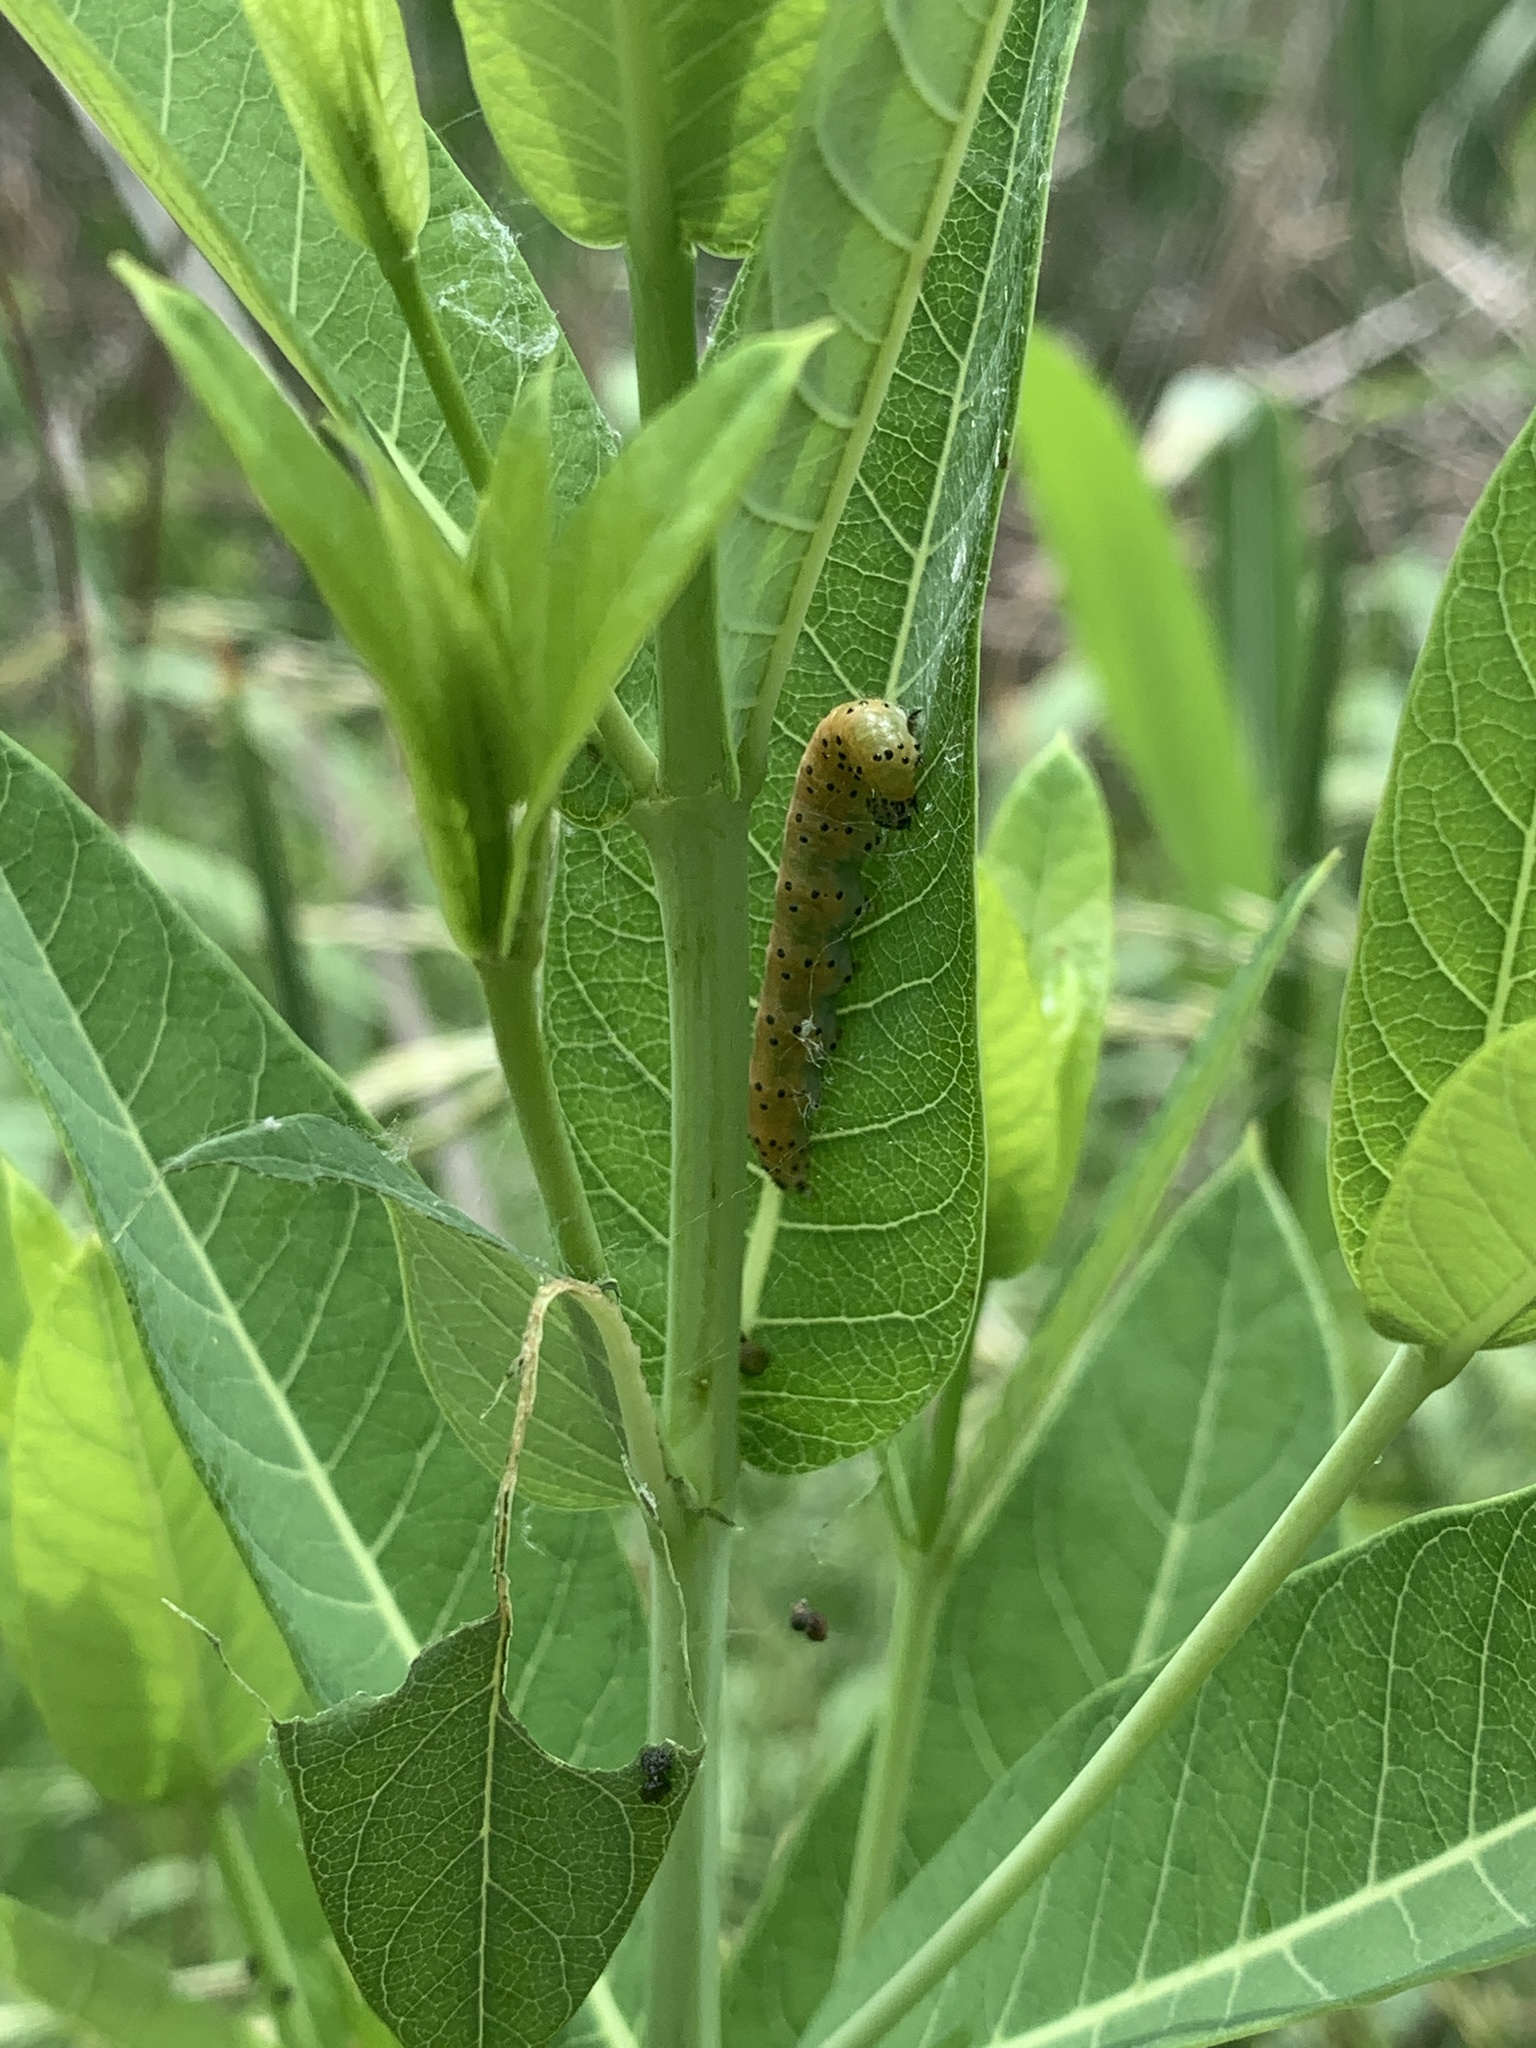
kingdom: Animalia
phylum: Arthropoda
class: Insecta
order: Lepidoptera
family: Crambidae
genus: Saucrobotys
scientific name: Saucrobotys futilalis
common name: Dogbane saucrobotys moth
